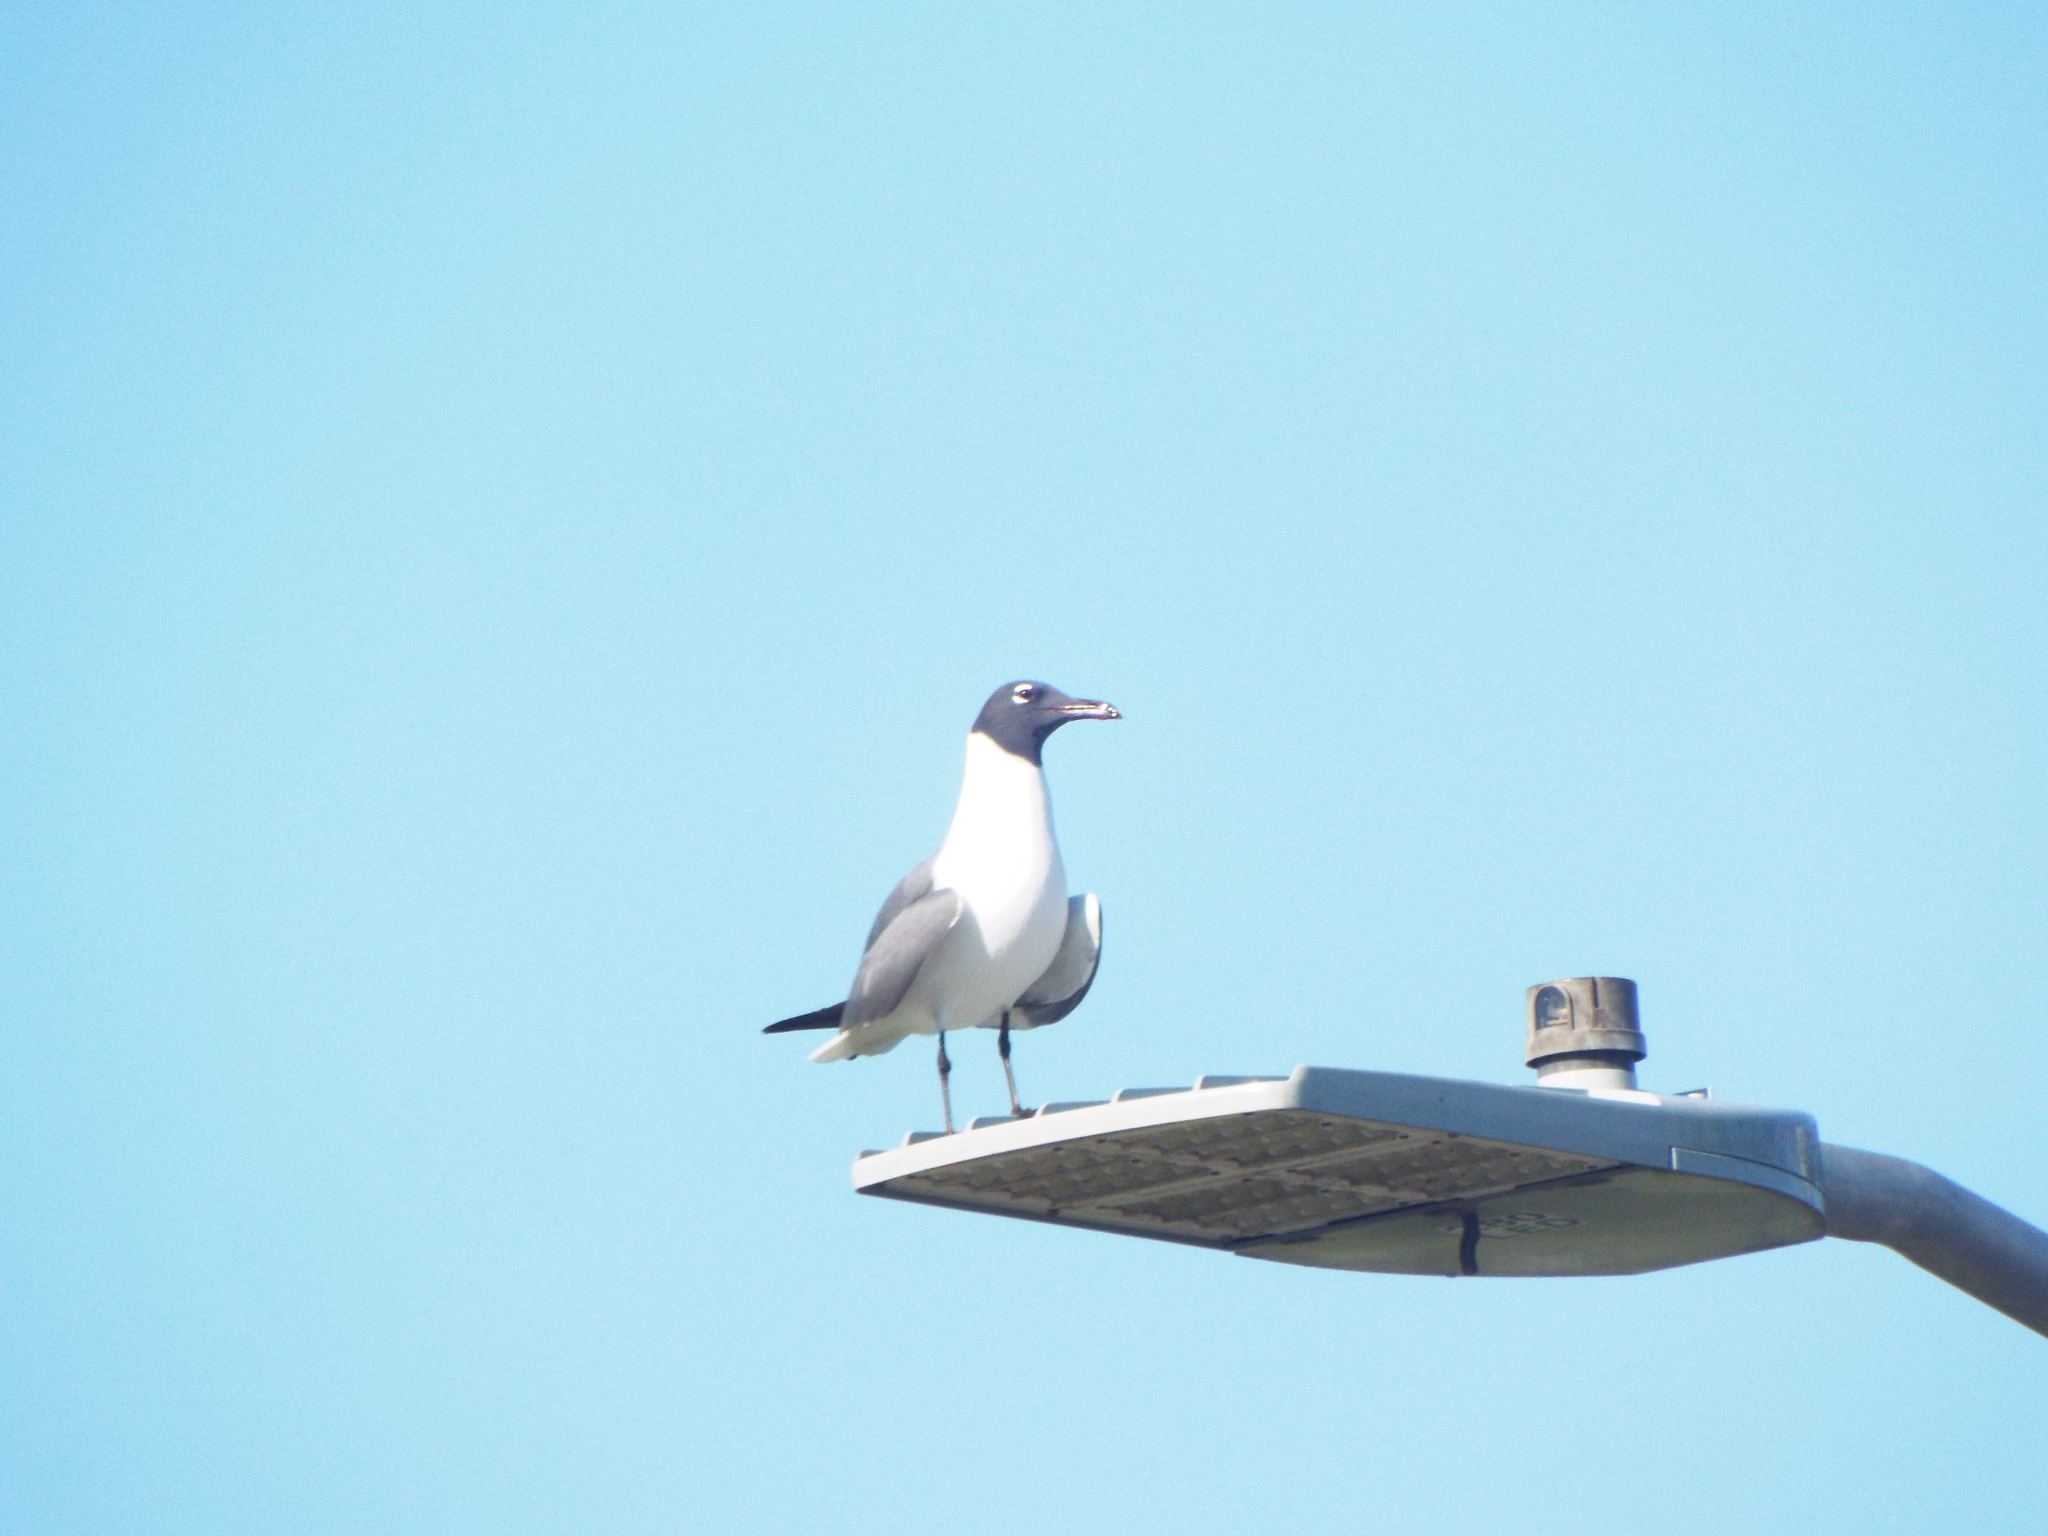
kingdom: Animalia
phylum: Chordata
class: Aves
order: Charadriiformes
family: Laridae
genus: Leucophaeus
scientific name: Leucophaeus atricilla
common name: Laughing gull
